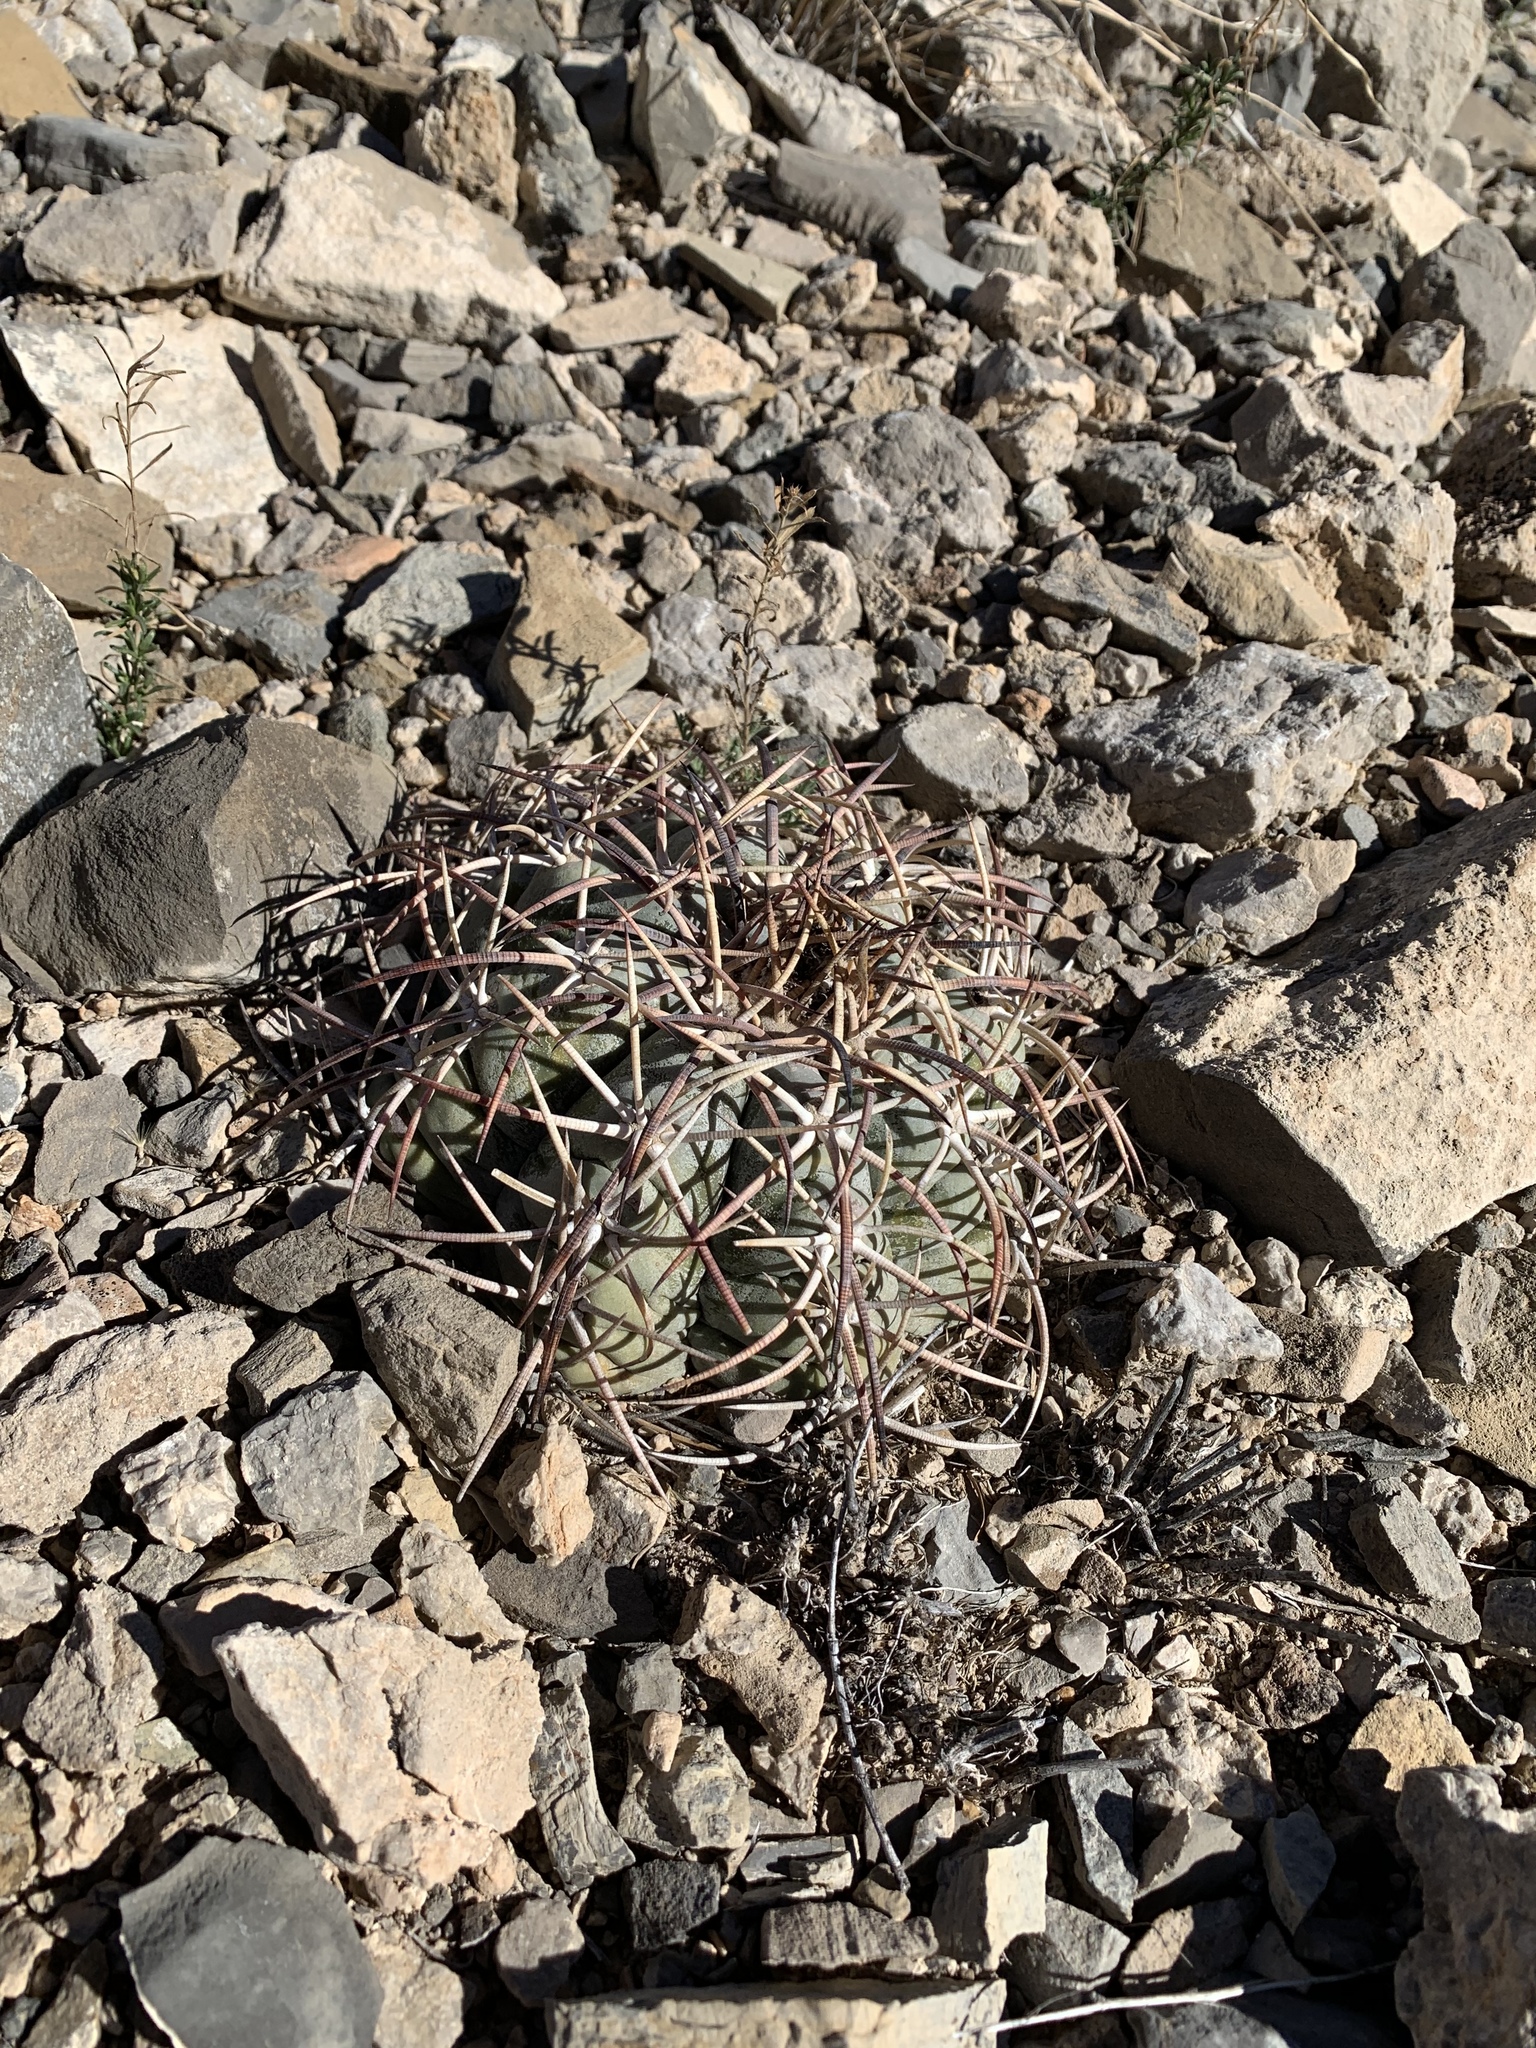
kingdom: Plantae
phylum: Tracheophyta
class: Magnoliopsida
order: Caryophyllales
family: Cactaceae
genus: Echinocactus
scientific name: Echinocactus horizonthalonius
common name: Devilshead
